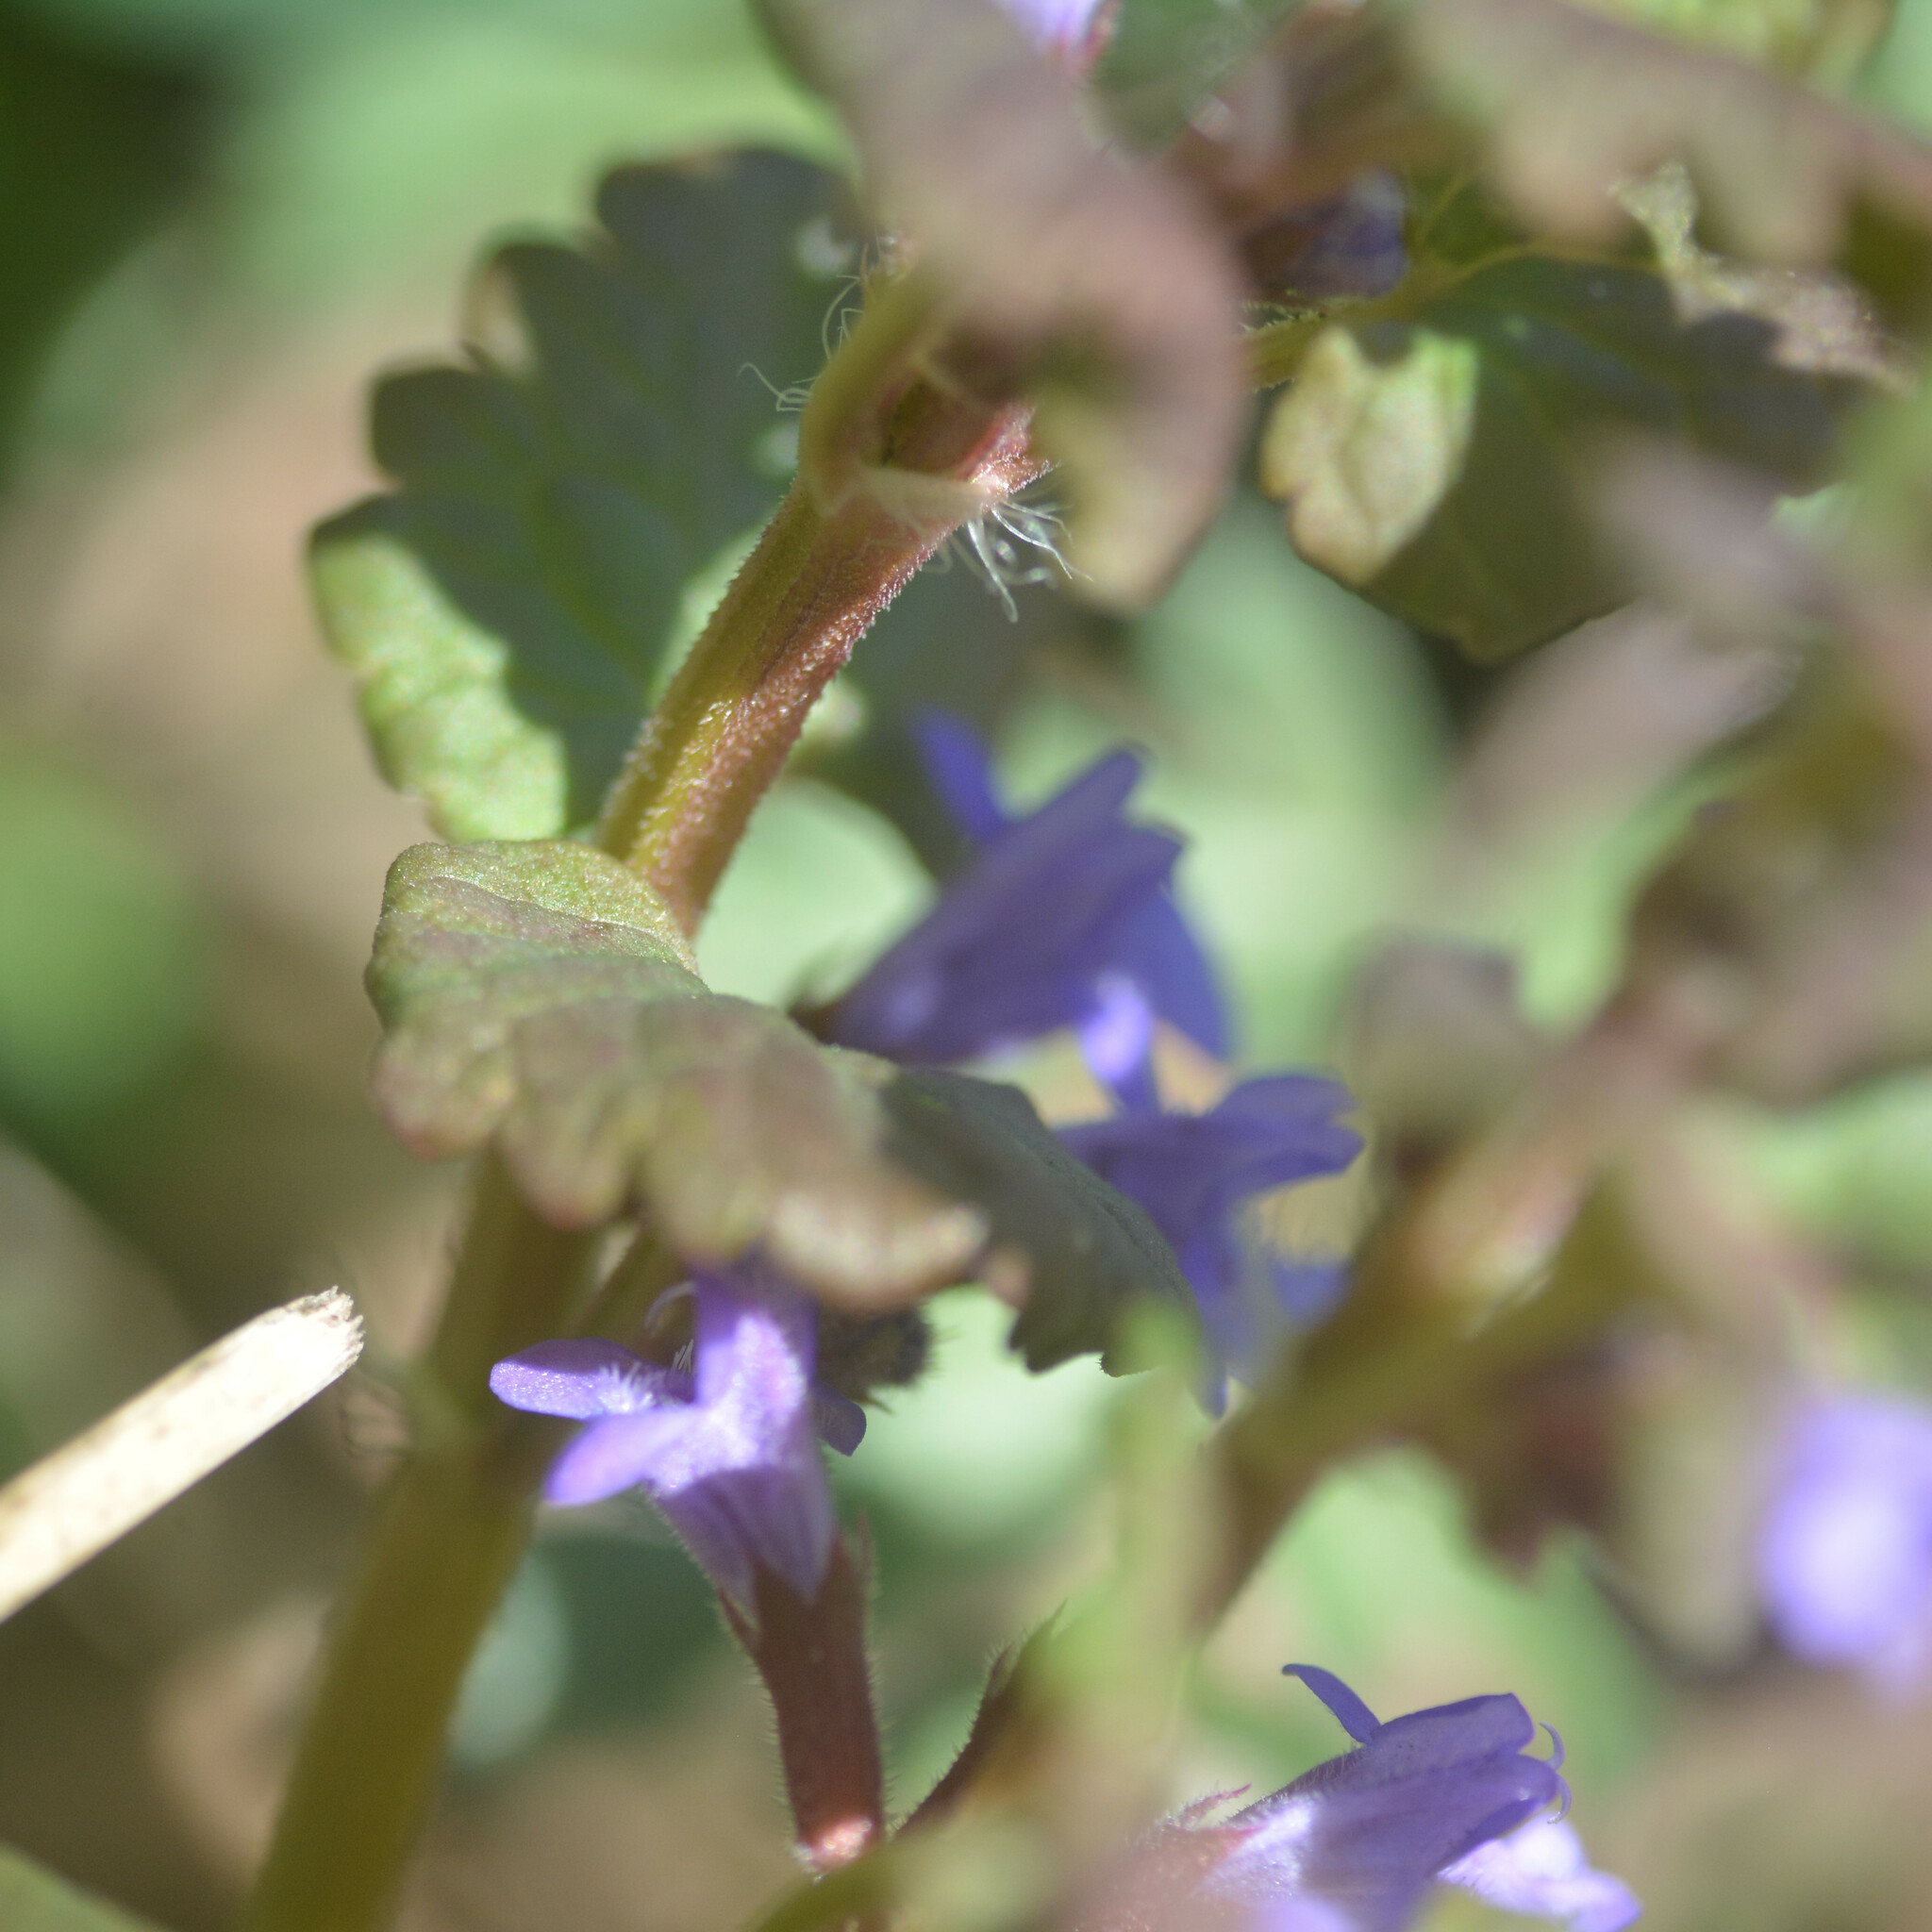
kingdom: Plantae
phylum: Tracheophyta
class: Magnoliopsida
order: Lamiales
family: Lamiaceae
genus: Glechoma
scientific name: Glechoma hederacea
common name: Ground ivy
